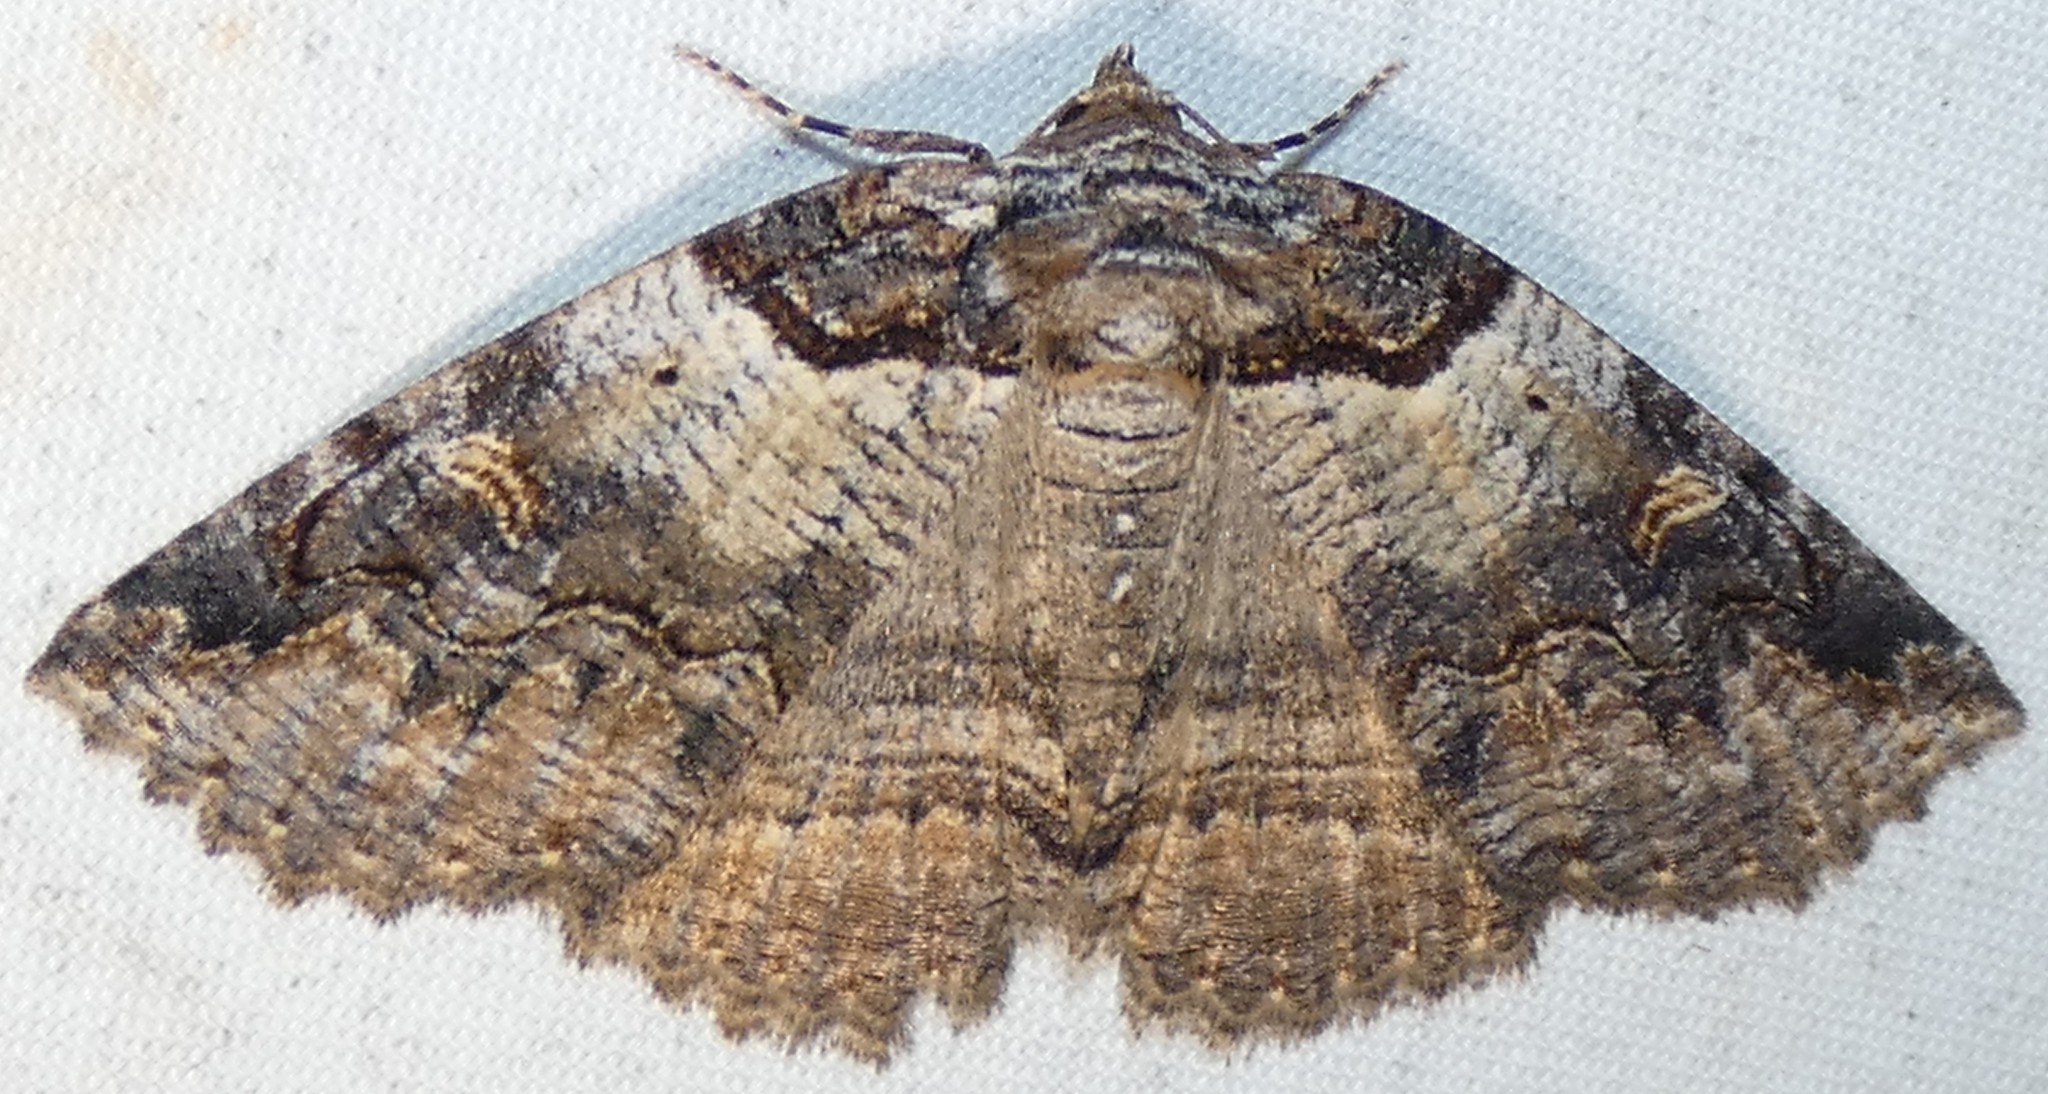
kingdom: Animalia
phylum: Arthropoda
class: Insecta
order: Lepidoptera
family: Erebidae
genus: Zale
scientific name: Zale intenta
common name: Intent zale moth
